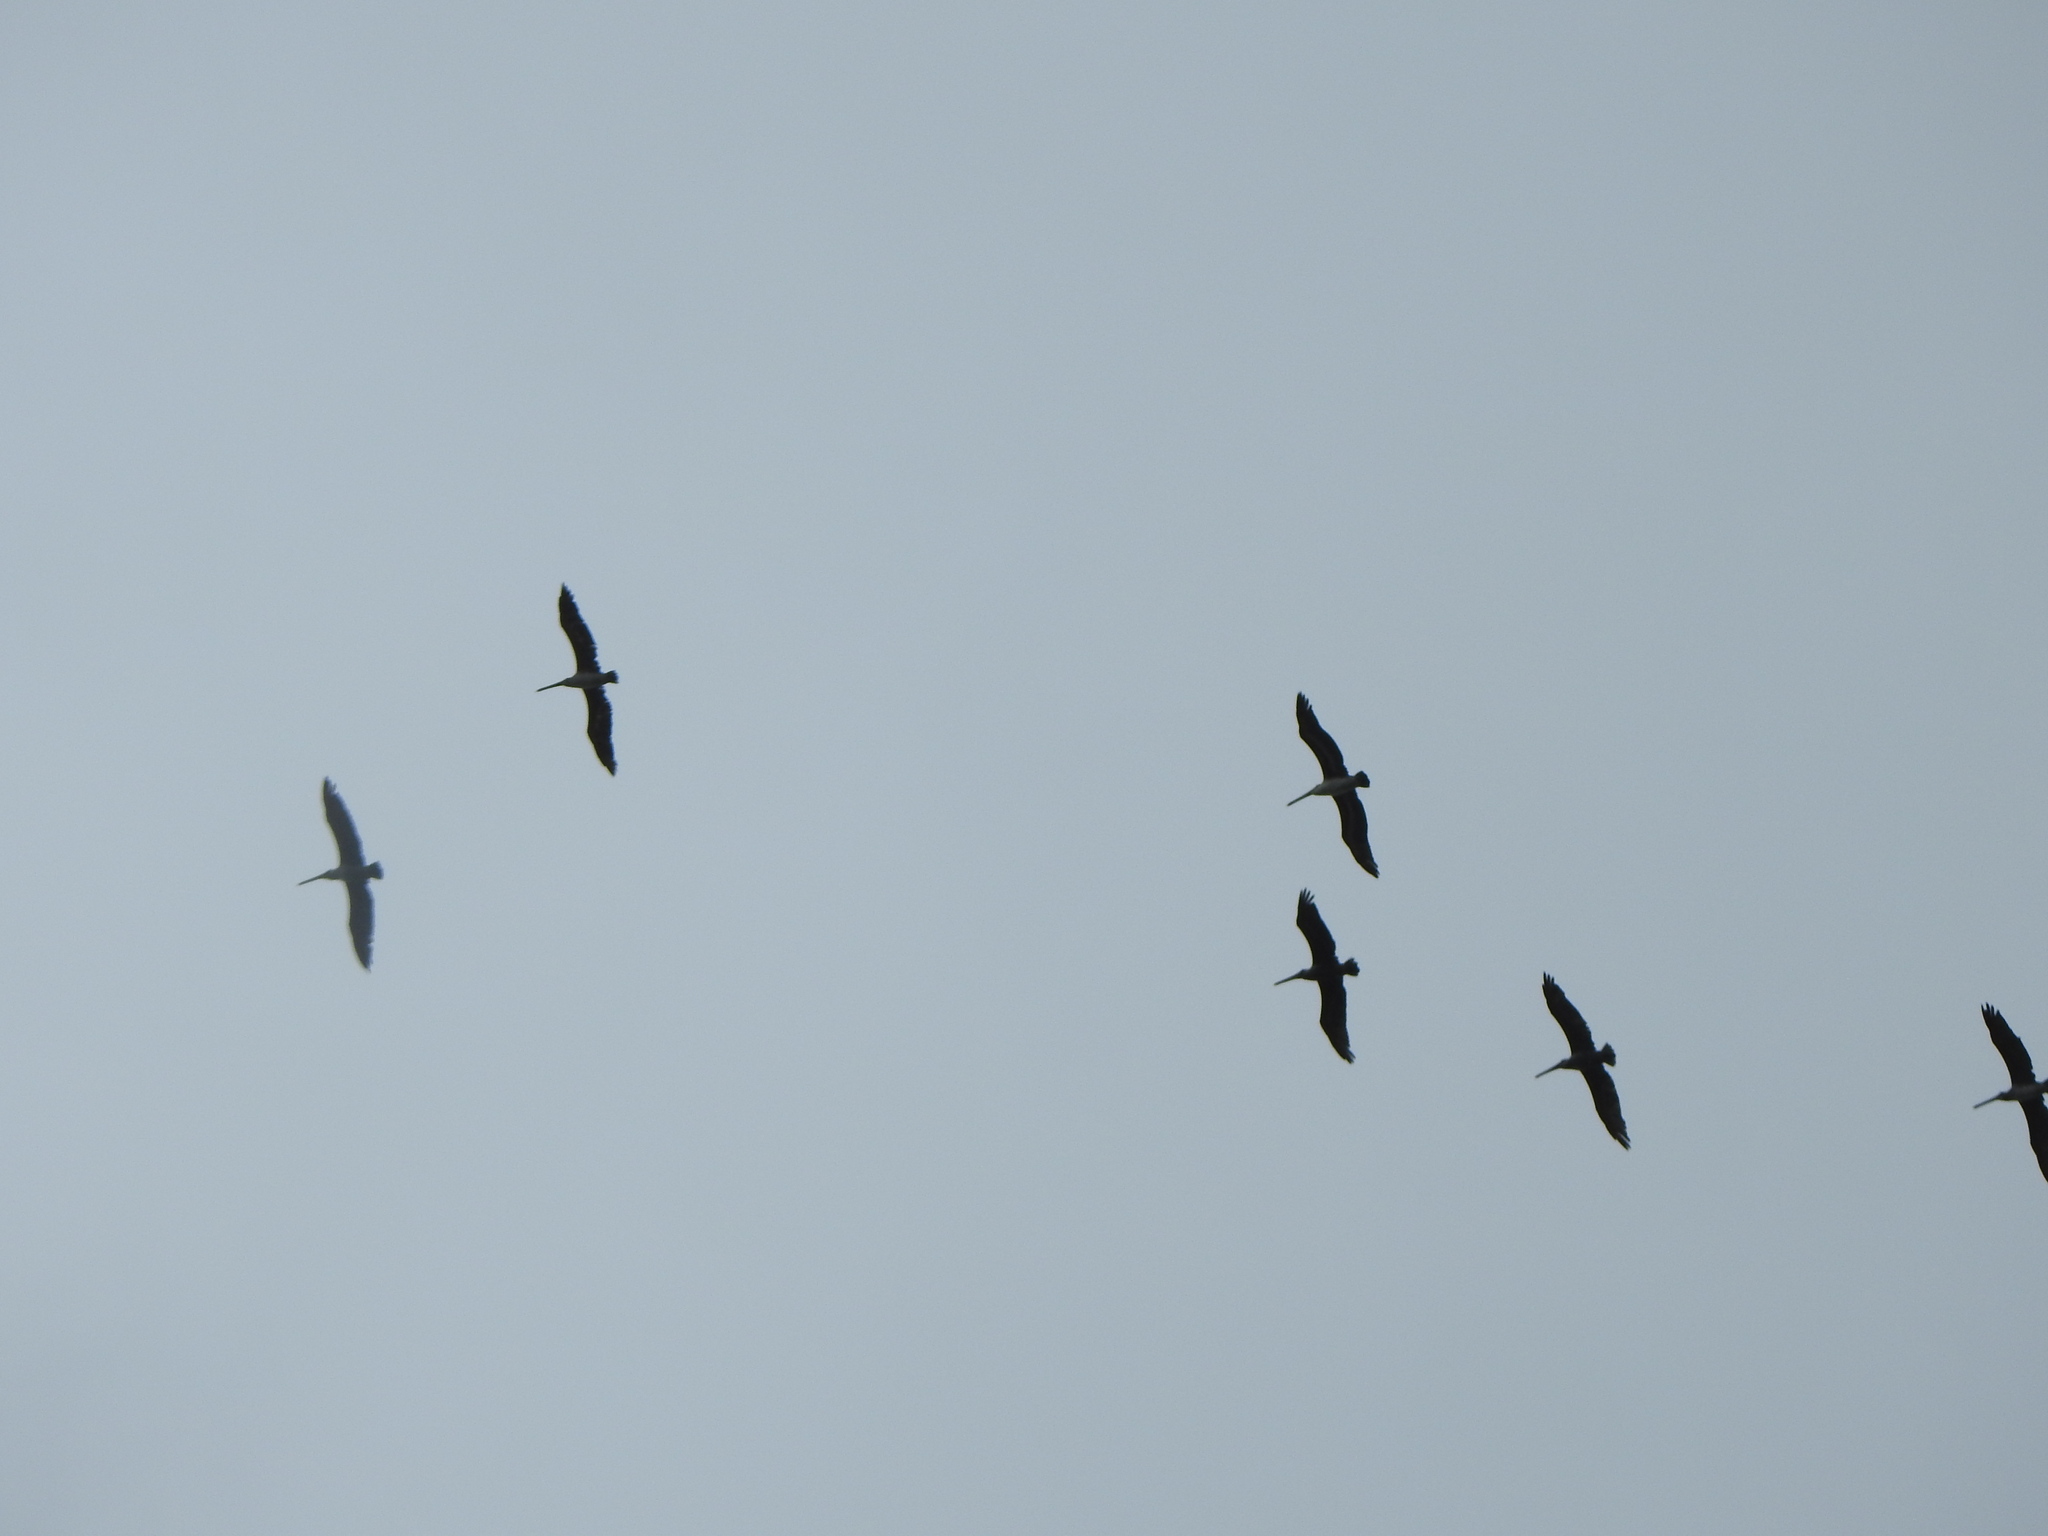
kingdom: Animalia
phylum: Chordata
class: Aves
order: Pelecaniformes
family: Pelecanidae
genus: Pelecanus
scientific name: Pelecanus occidentalis
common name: Brown pelican
